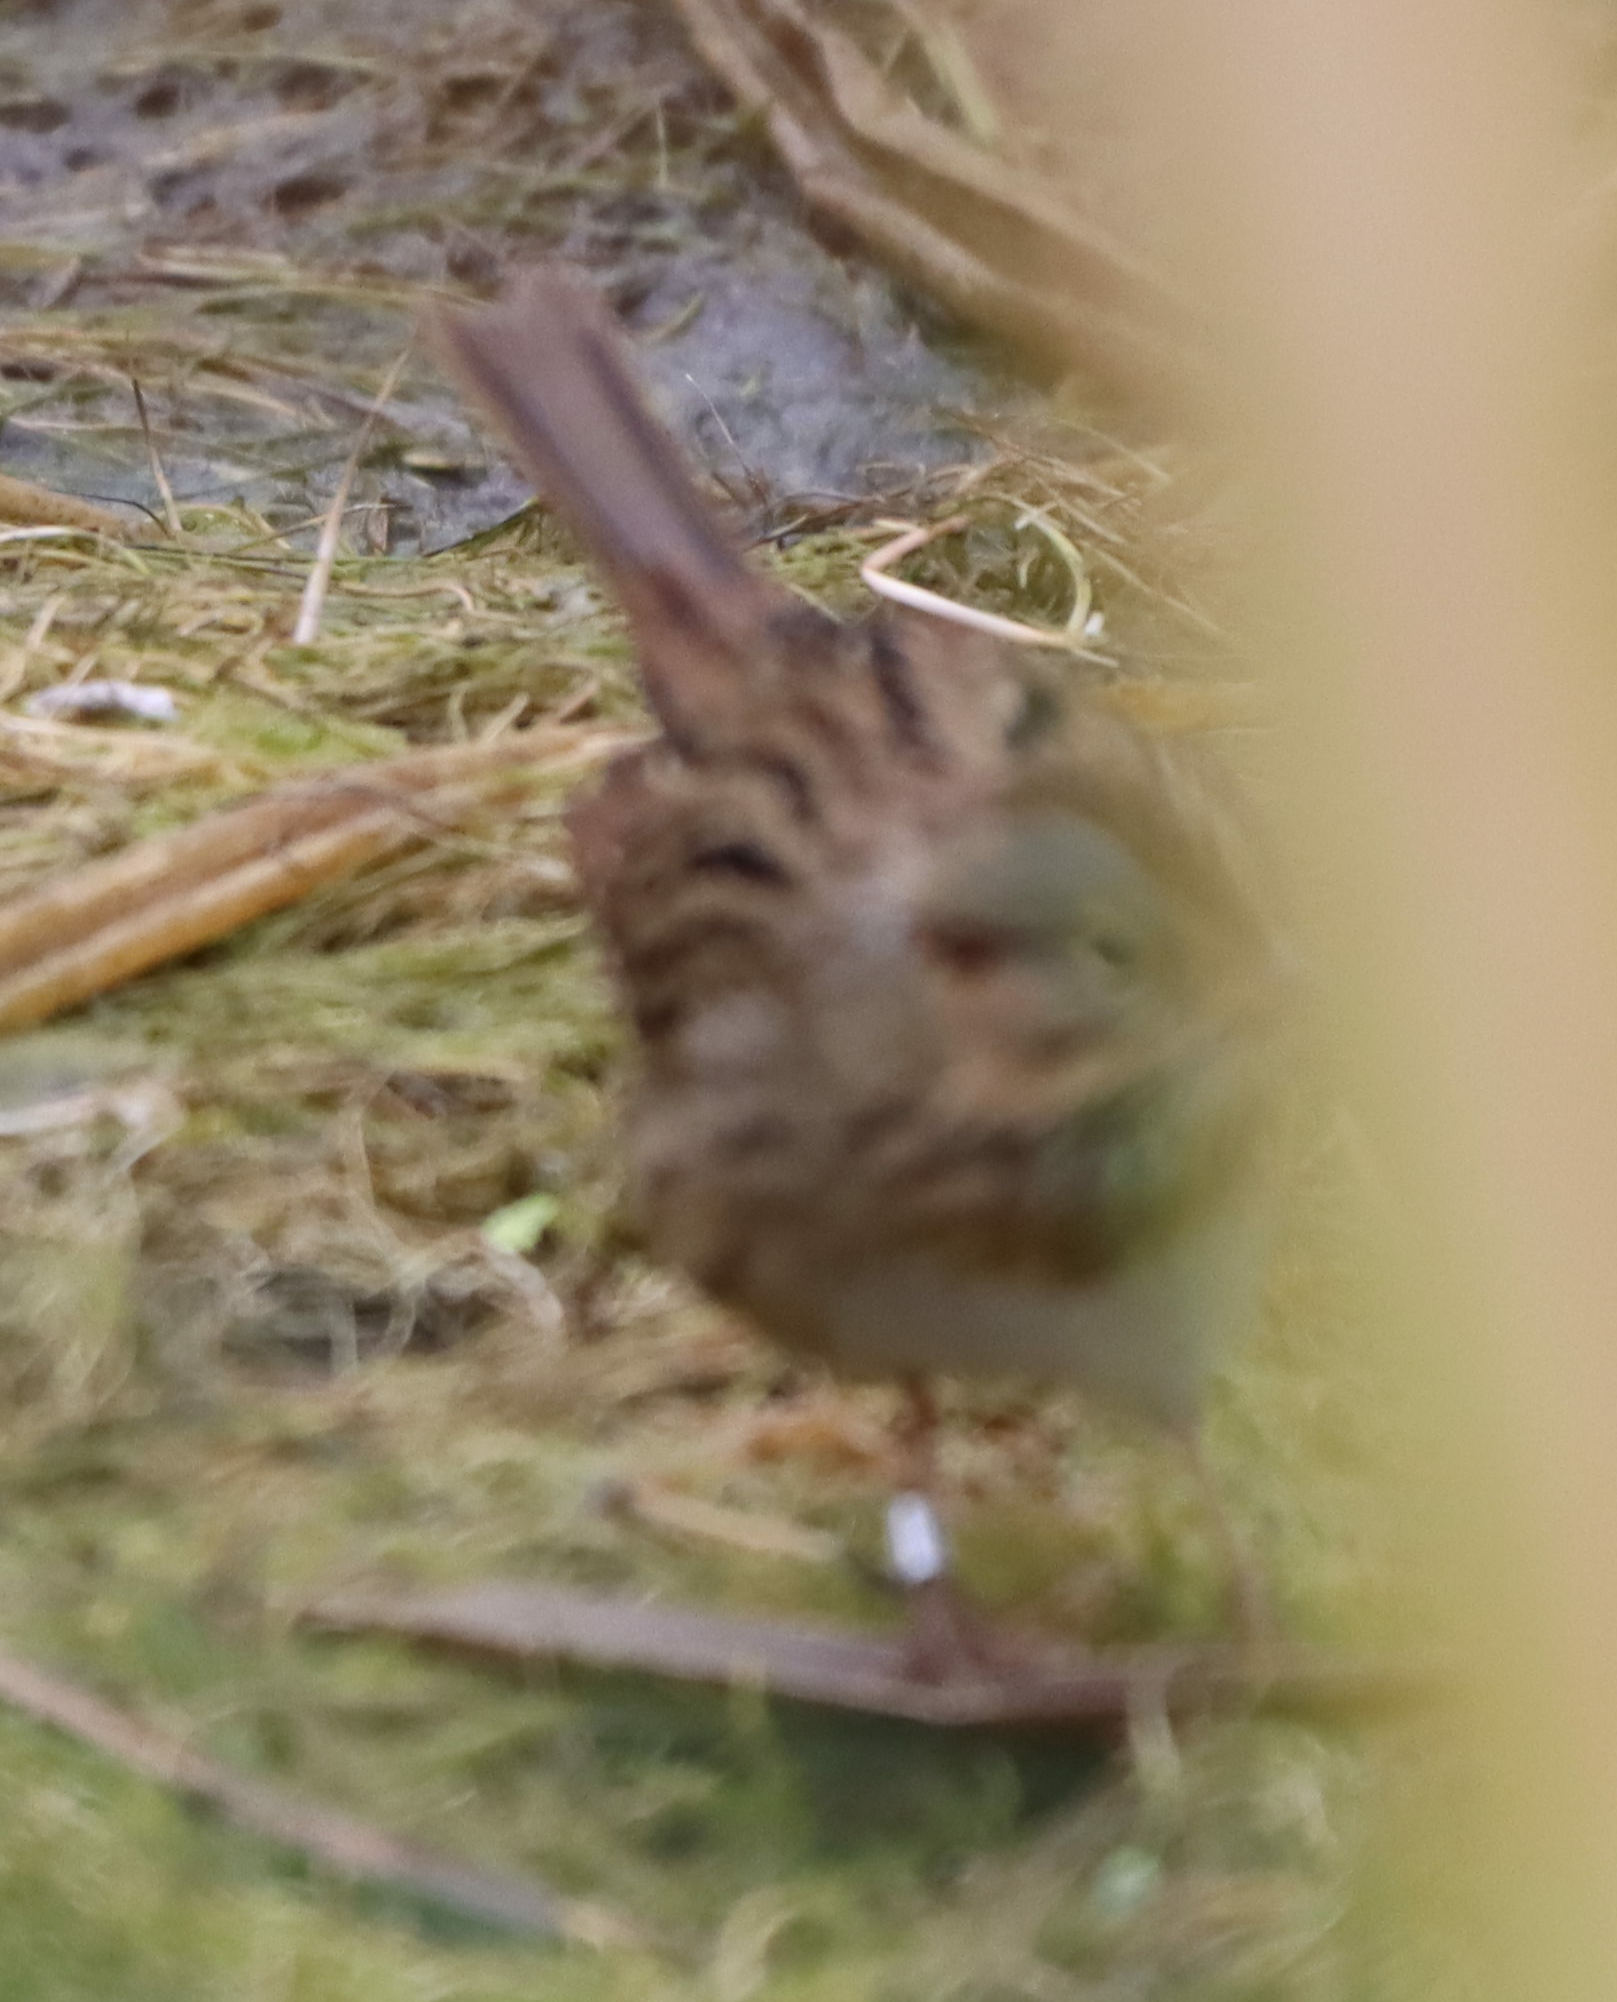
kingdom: Animalia
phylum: Chordata
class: Aves
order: Passeriformes
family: Passerellidae
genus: Melospiza
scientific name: Melospiza lincolnii
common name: Lincoln's sparrow
